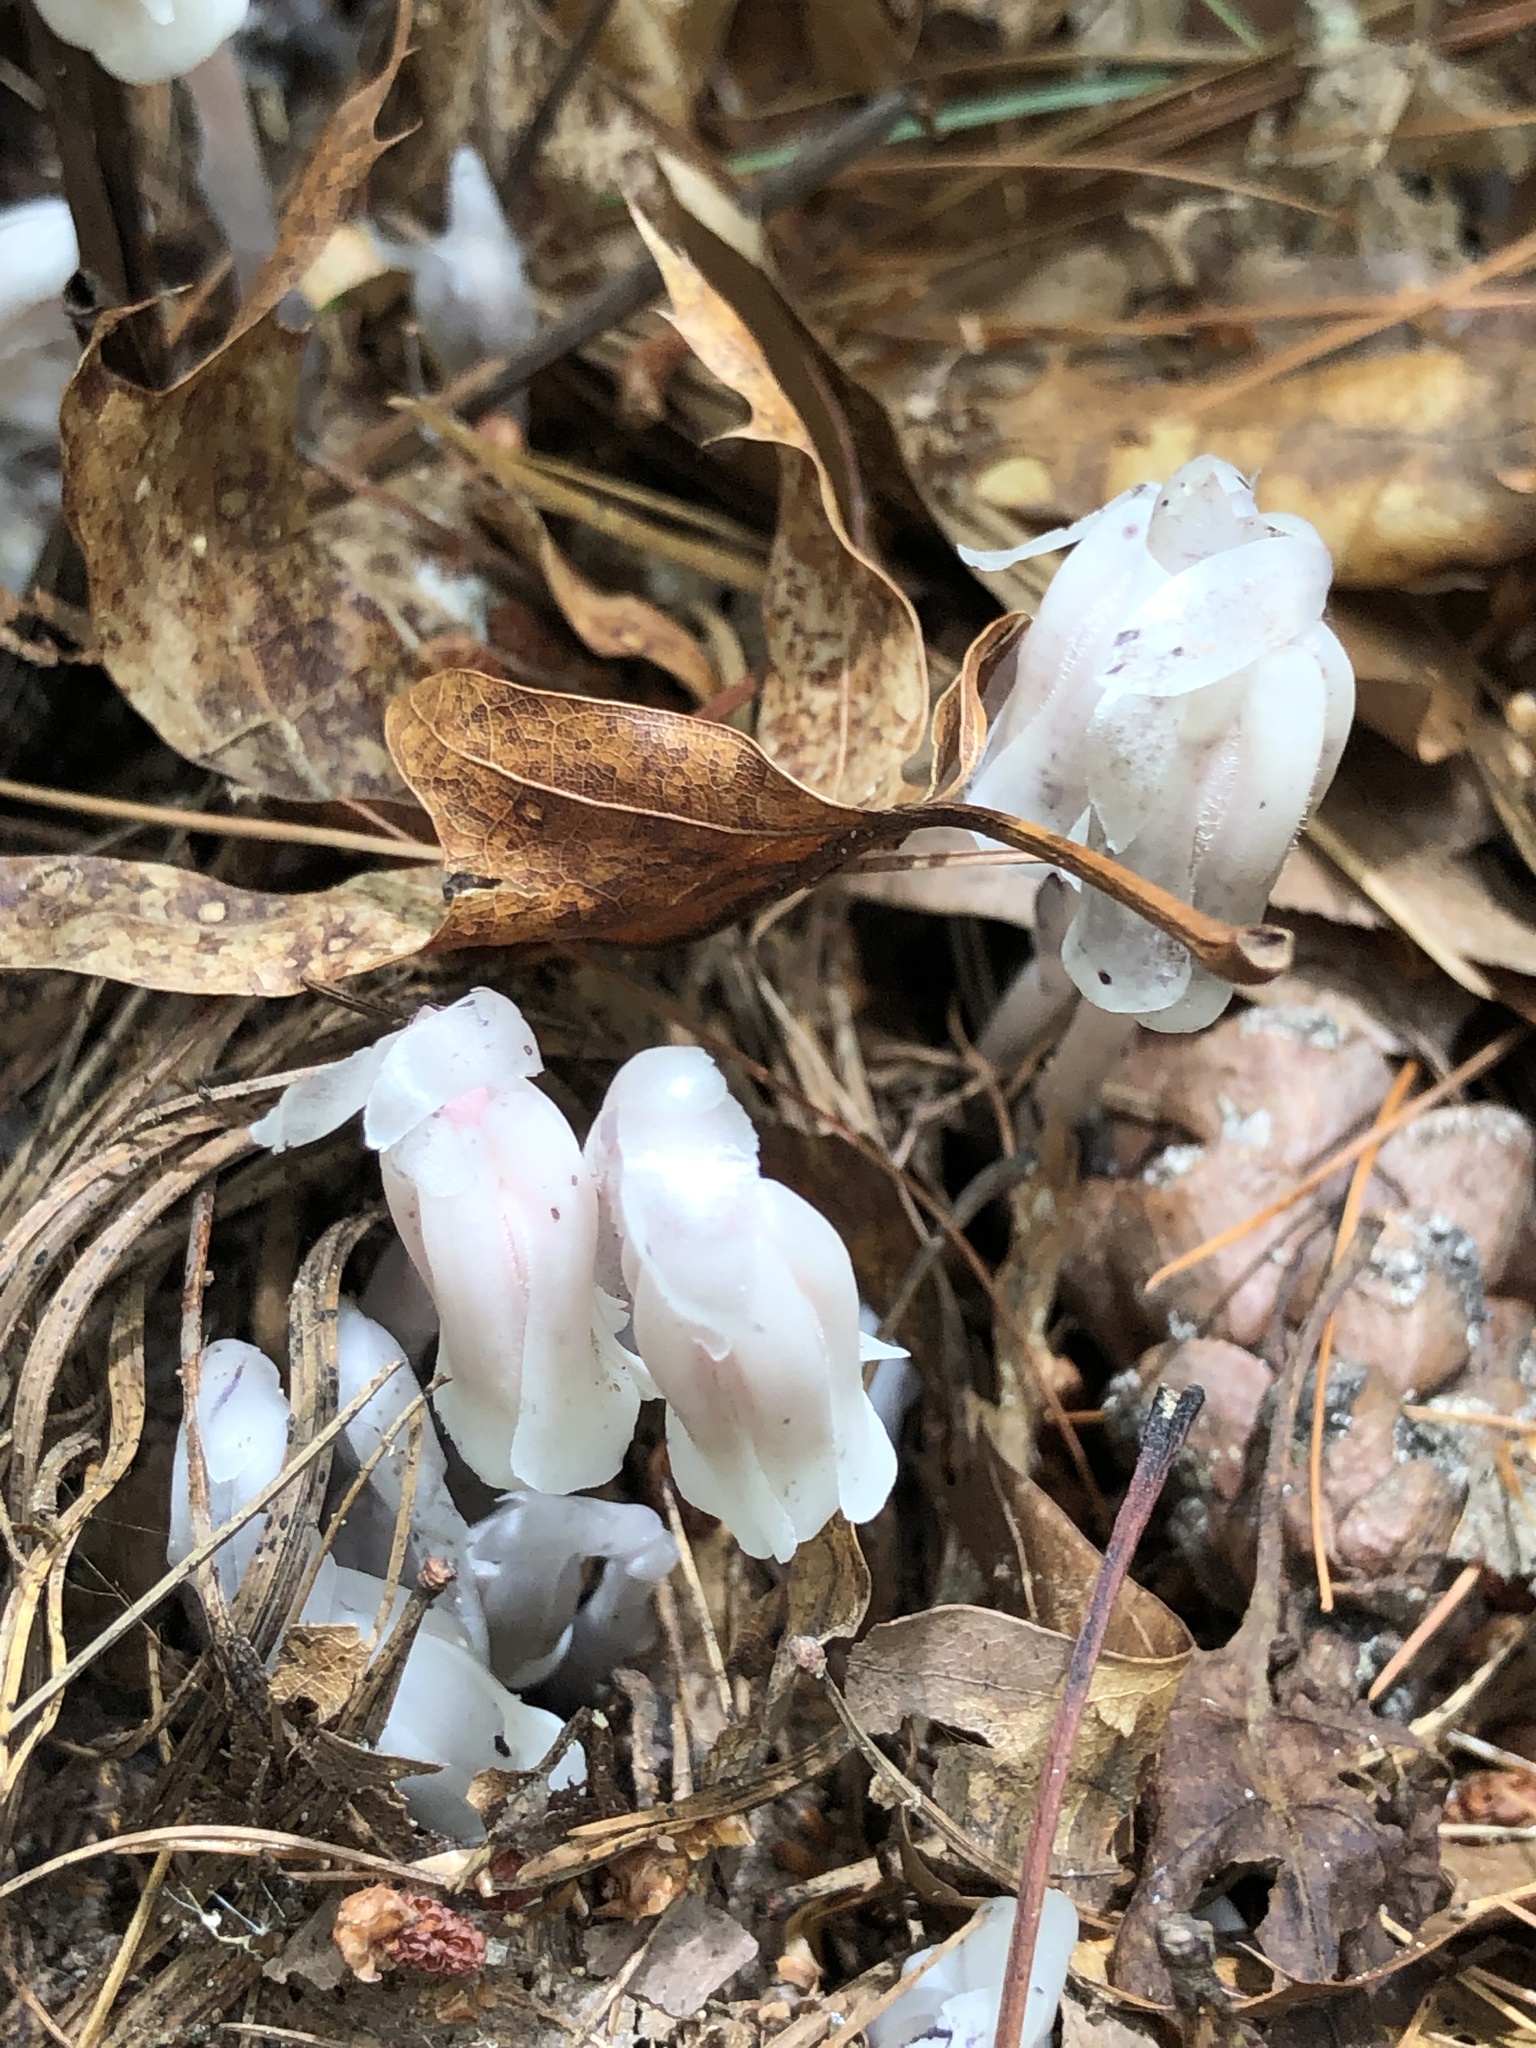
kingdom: Plantae
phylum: Tracheophyta
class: Magnoliopsida
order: Ericales
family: Ericaceae
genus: Monotropa
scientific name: Monotropa uniflora
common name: Convulsion root
